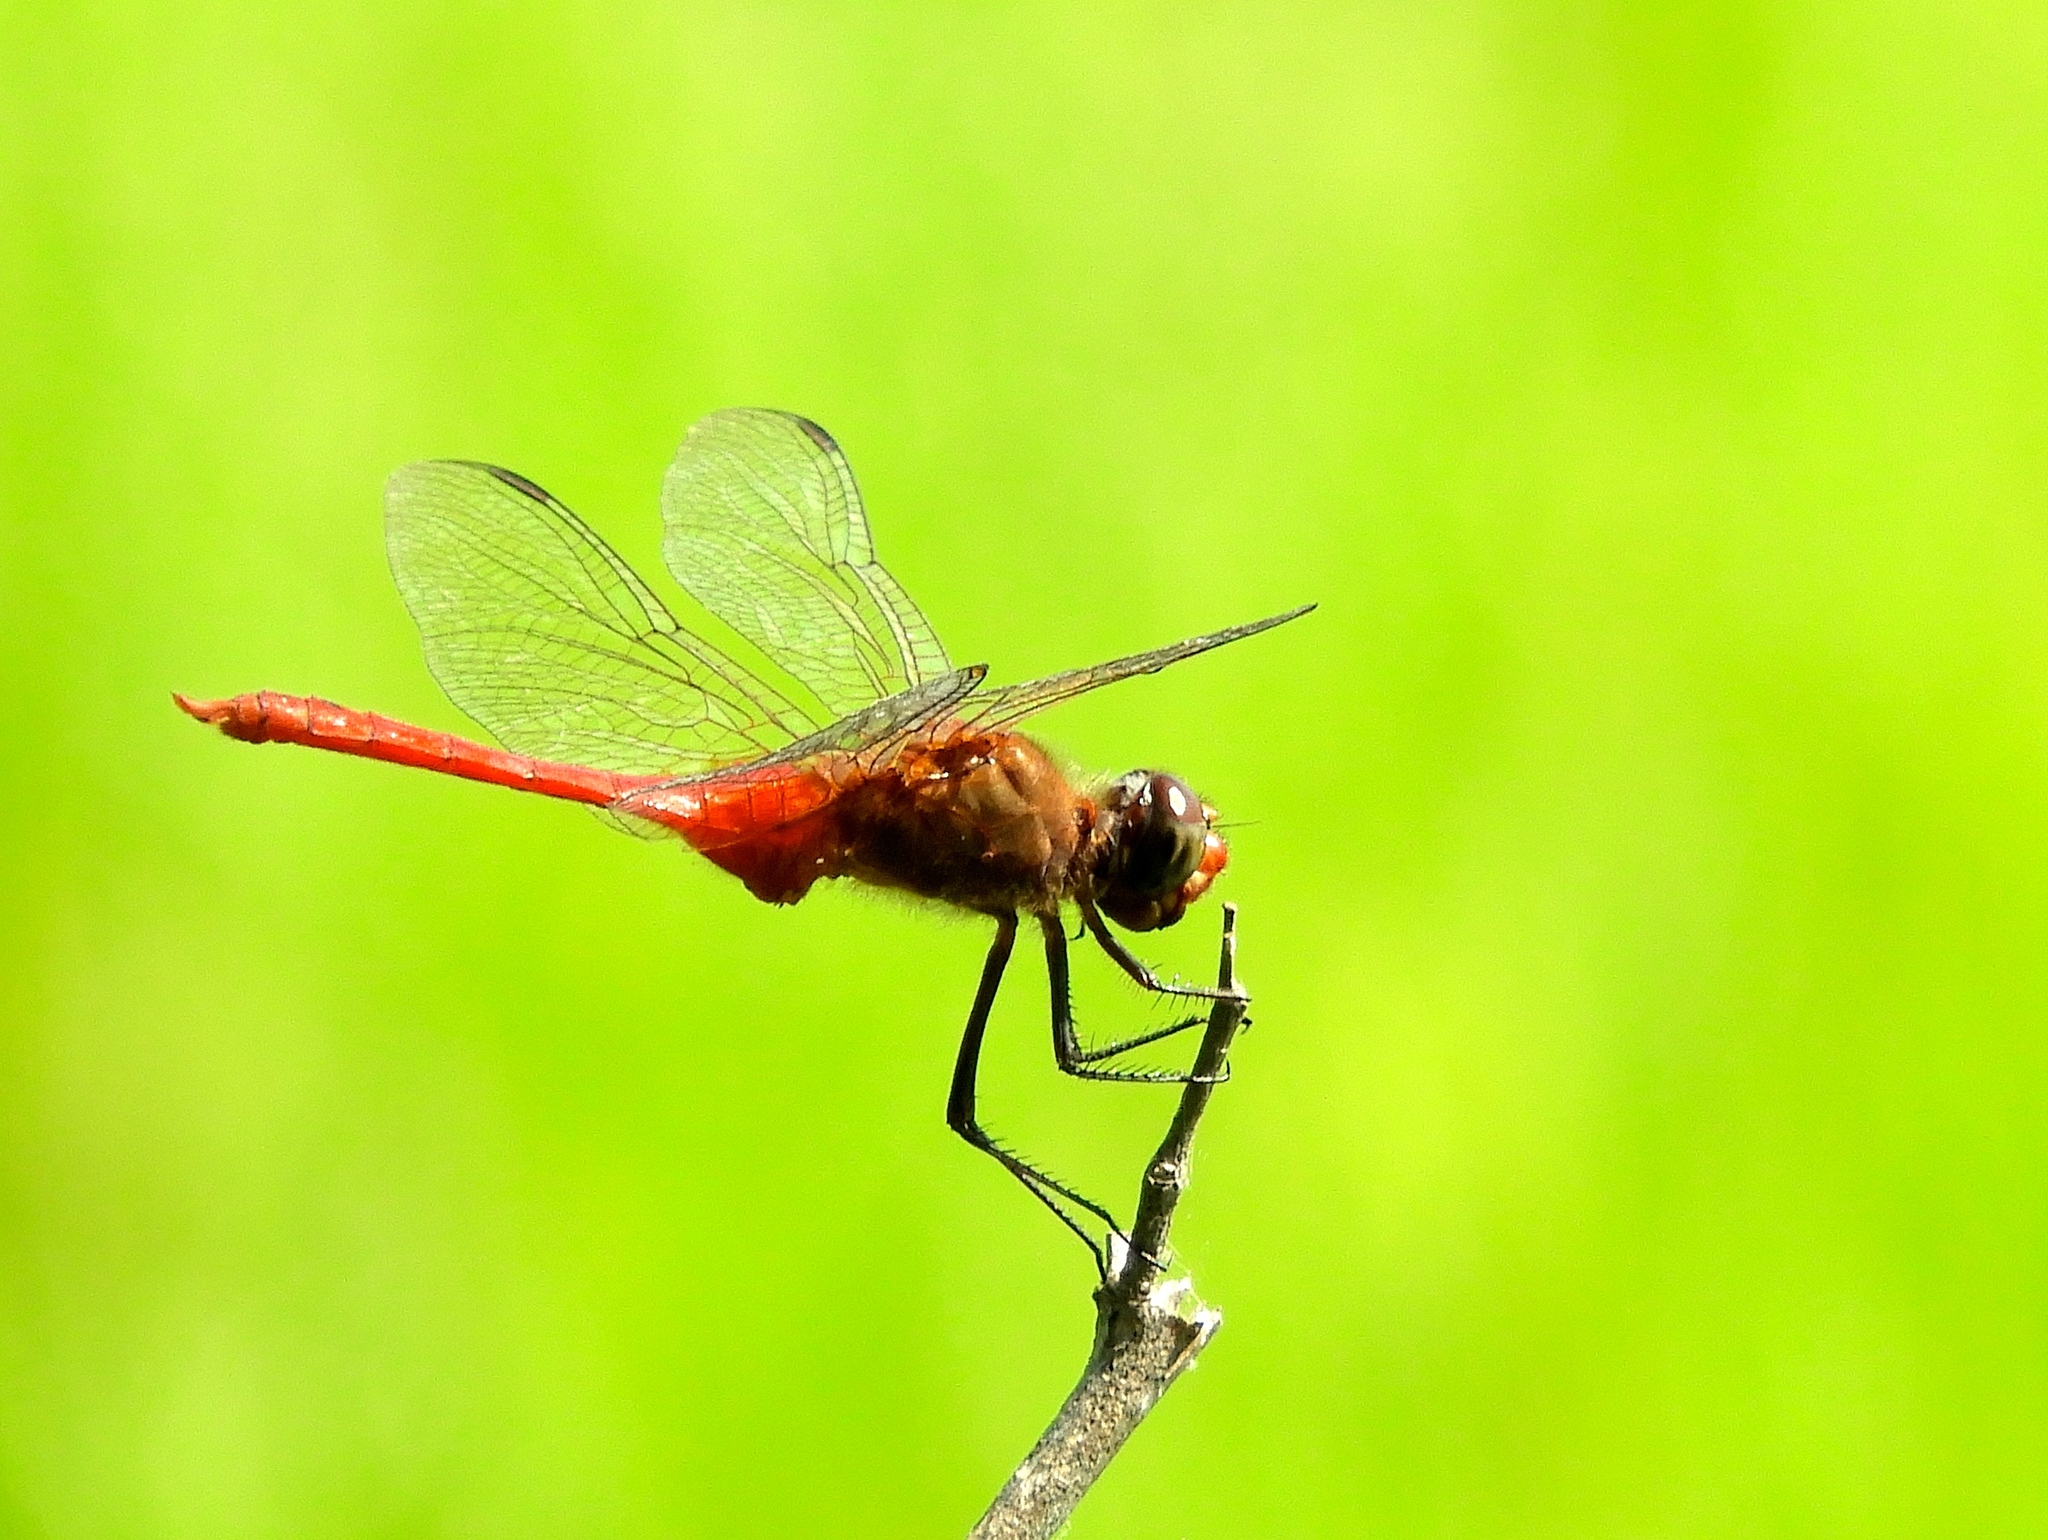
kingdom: Animalia
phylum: Arthropoda
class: Insecta
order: Odonata
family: Libellulidae
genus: Brachymesia
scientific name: Brachymesia furcata
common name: Red-taled pennant
